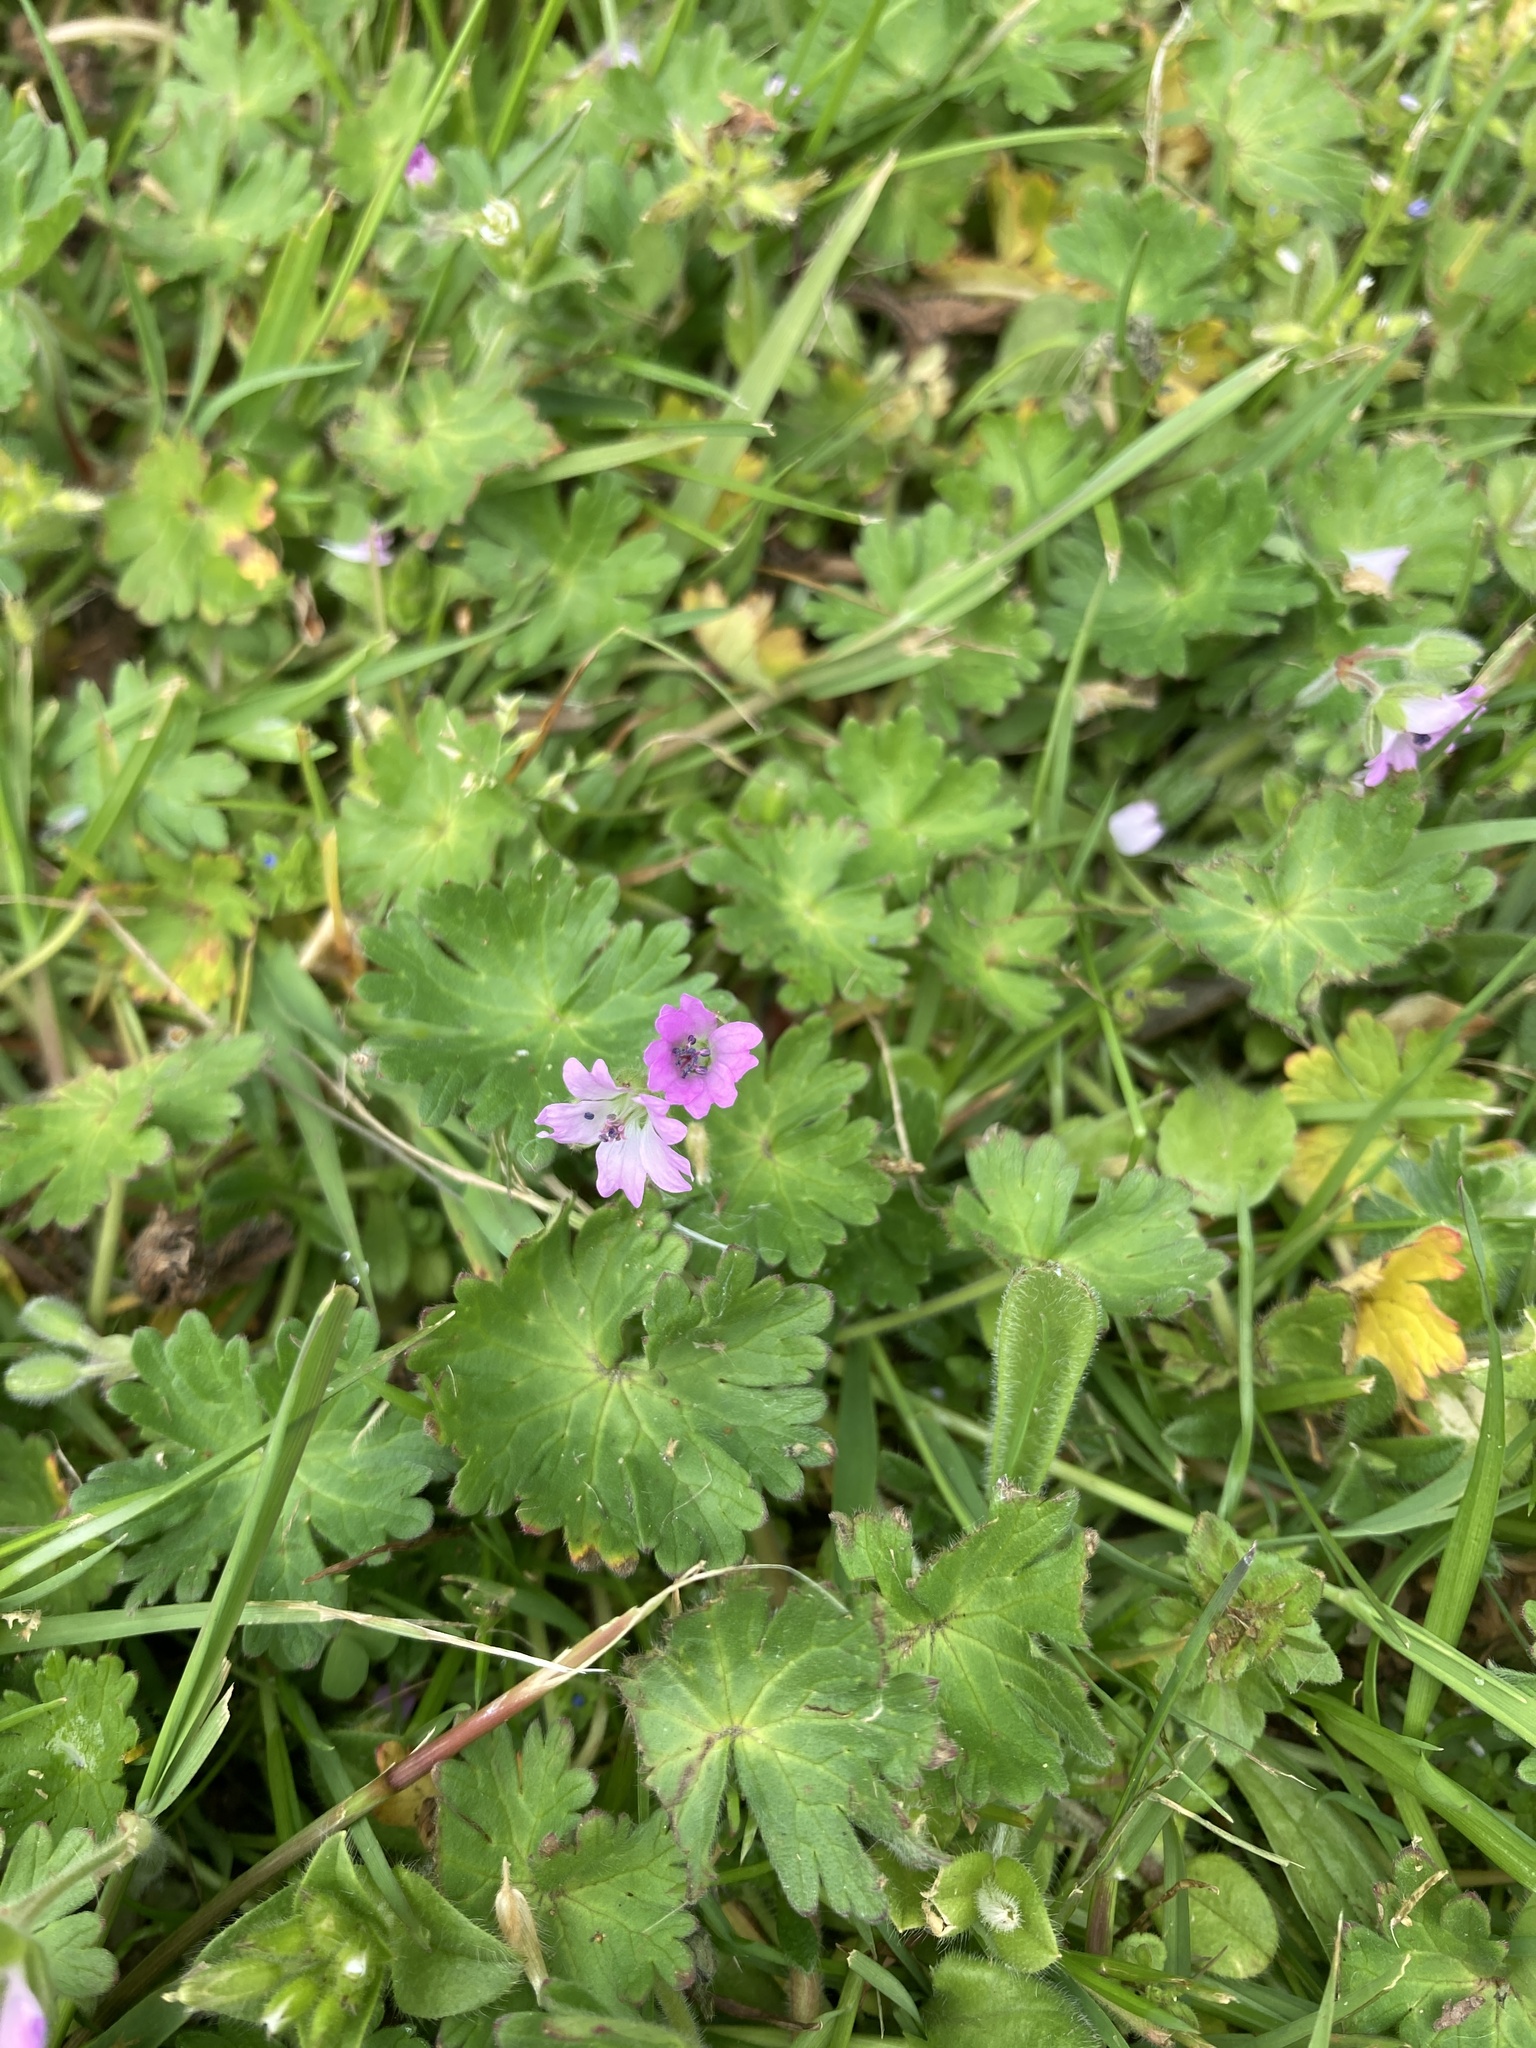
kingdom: Plantae
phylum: Tracheophyta
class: Magnoliopsida
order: Geraniales
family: Geraniaceae
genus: Geranium
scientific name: Geranium molle
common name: Dove's-foot crane's-bill
